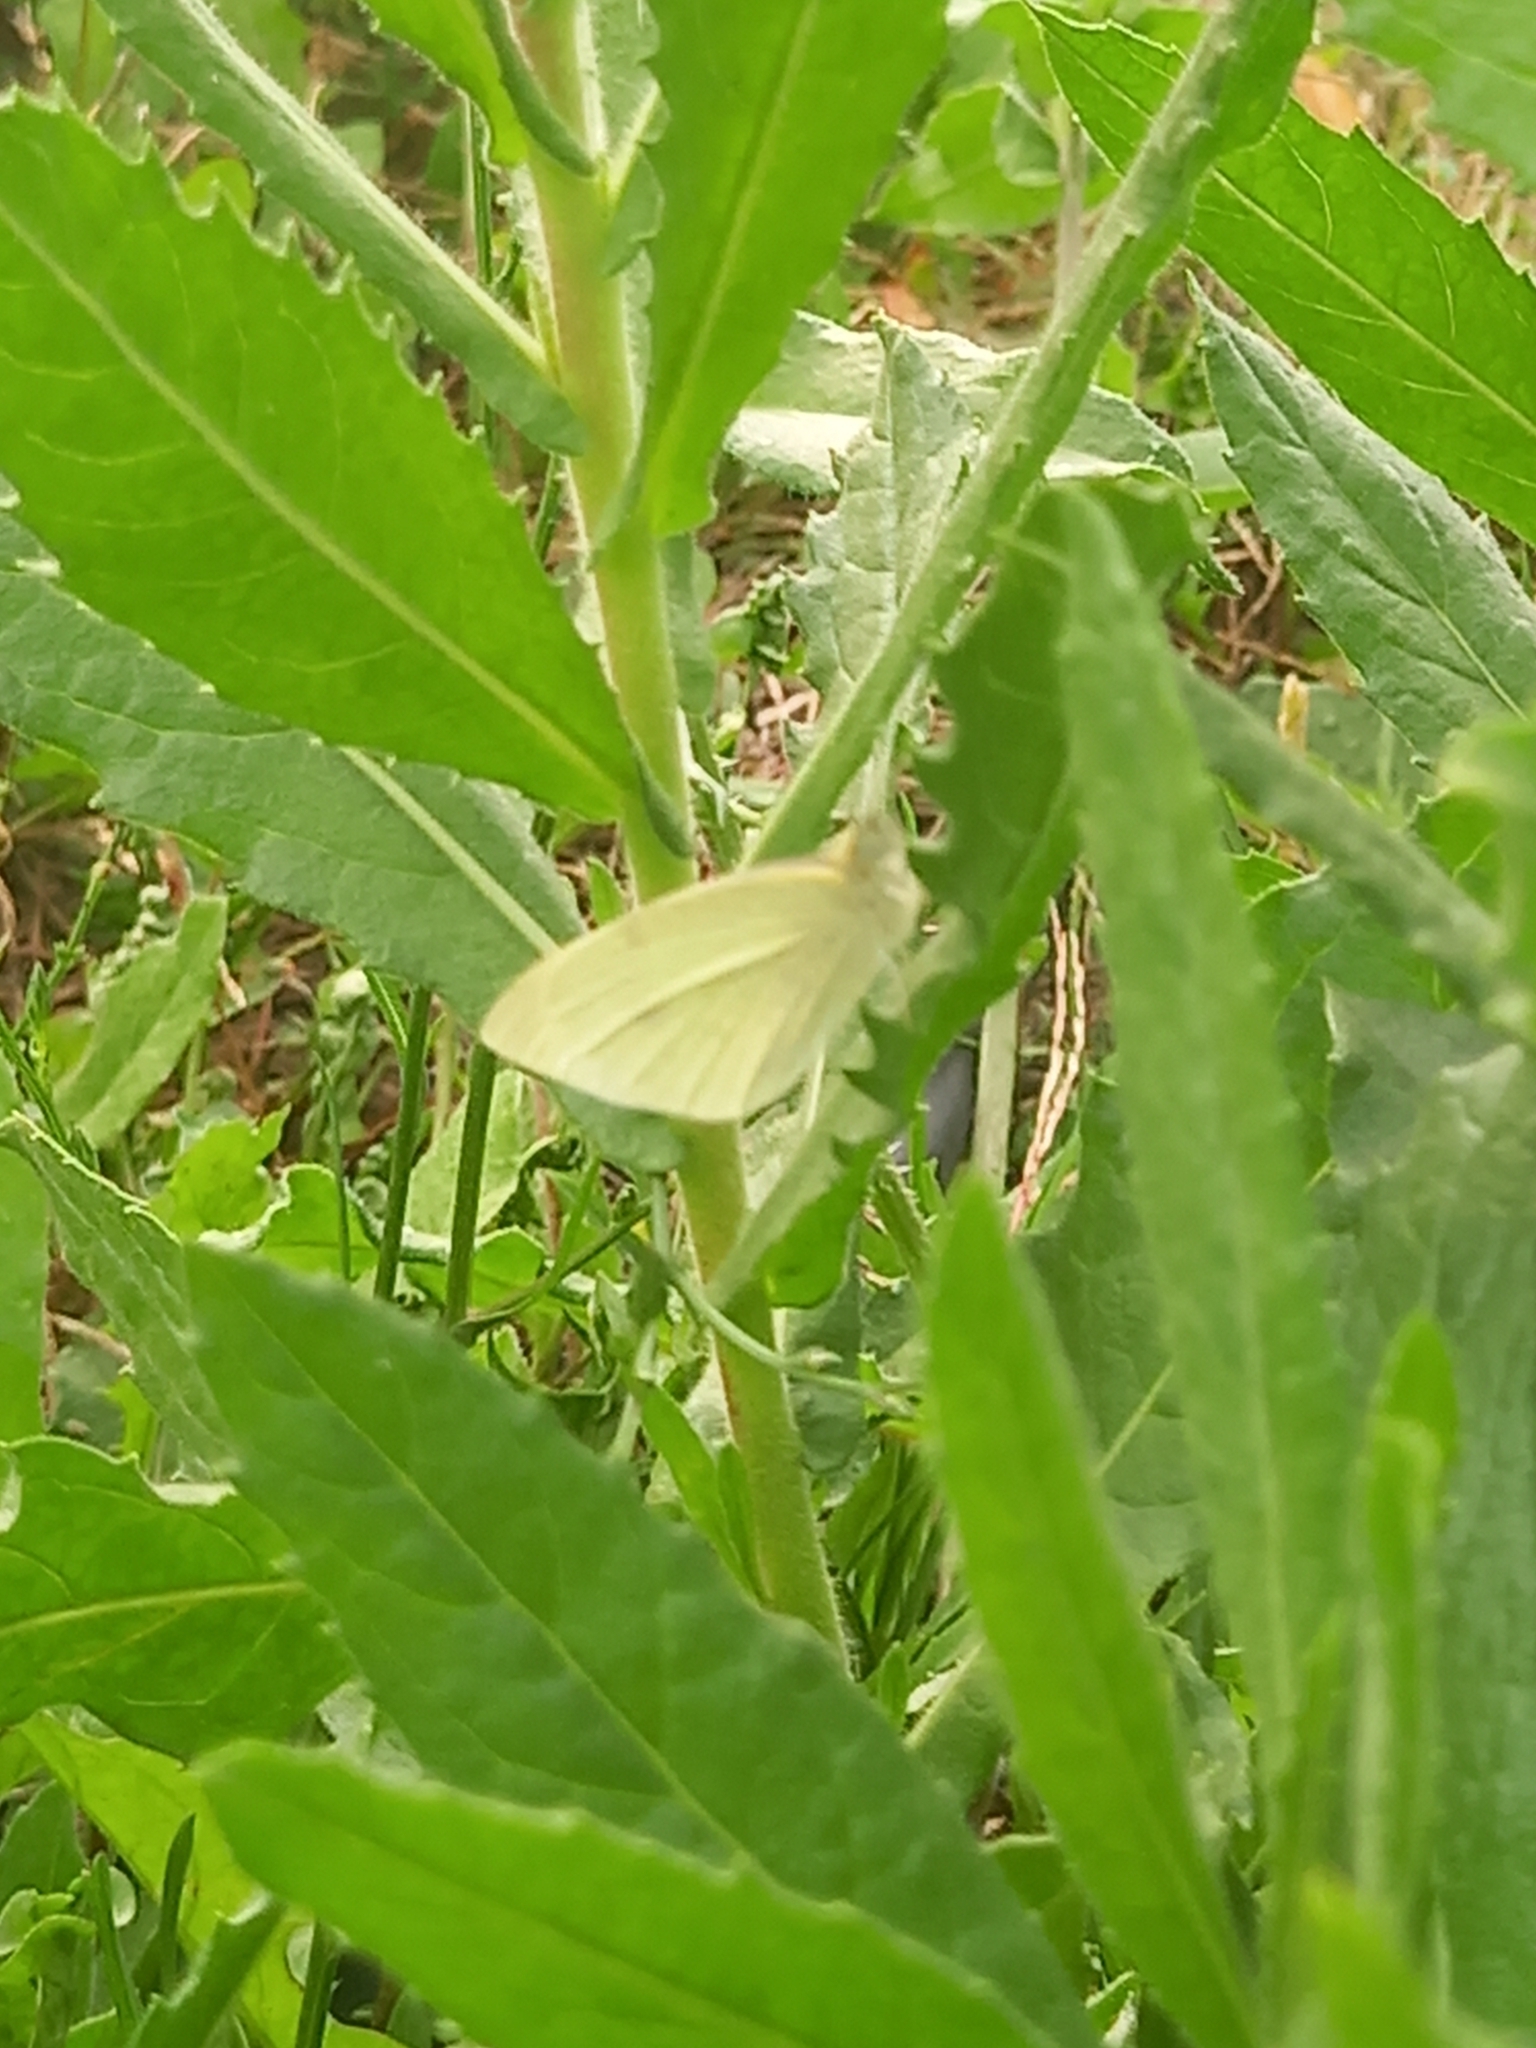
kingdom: Animalia
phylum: Arthropoda
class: Insecta
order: Lepidoptera
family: Pieridae
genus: Pieris
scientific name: Pieris rapae
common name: Small white
